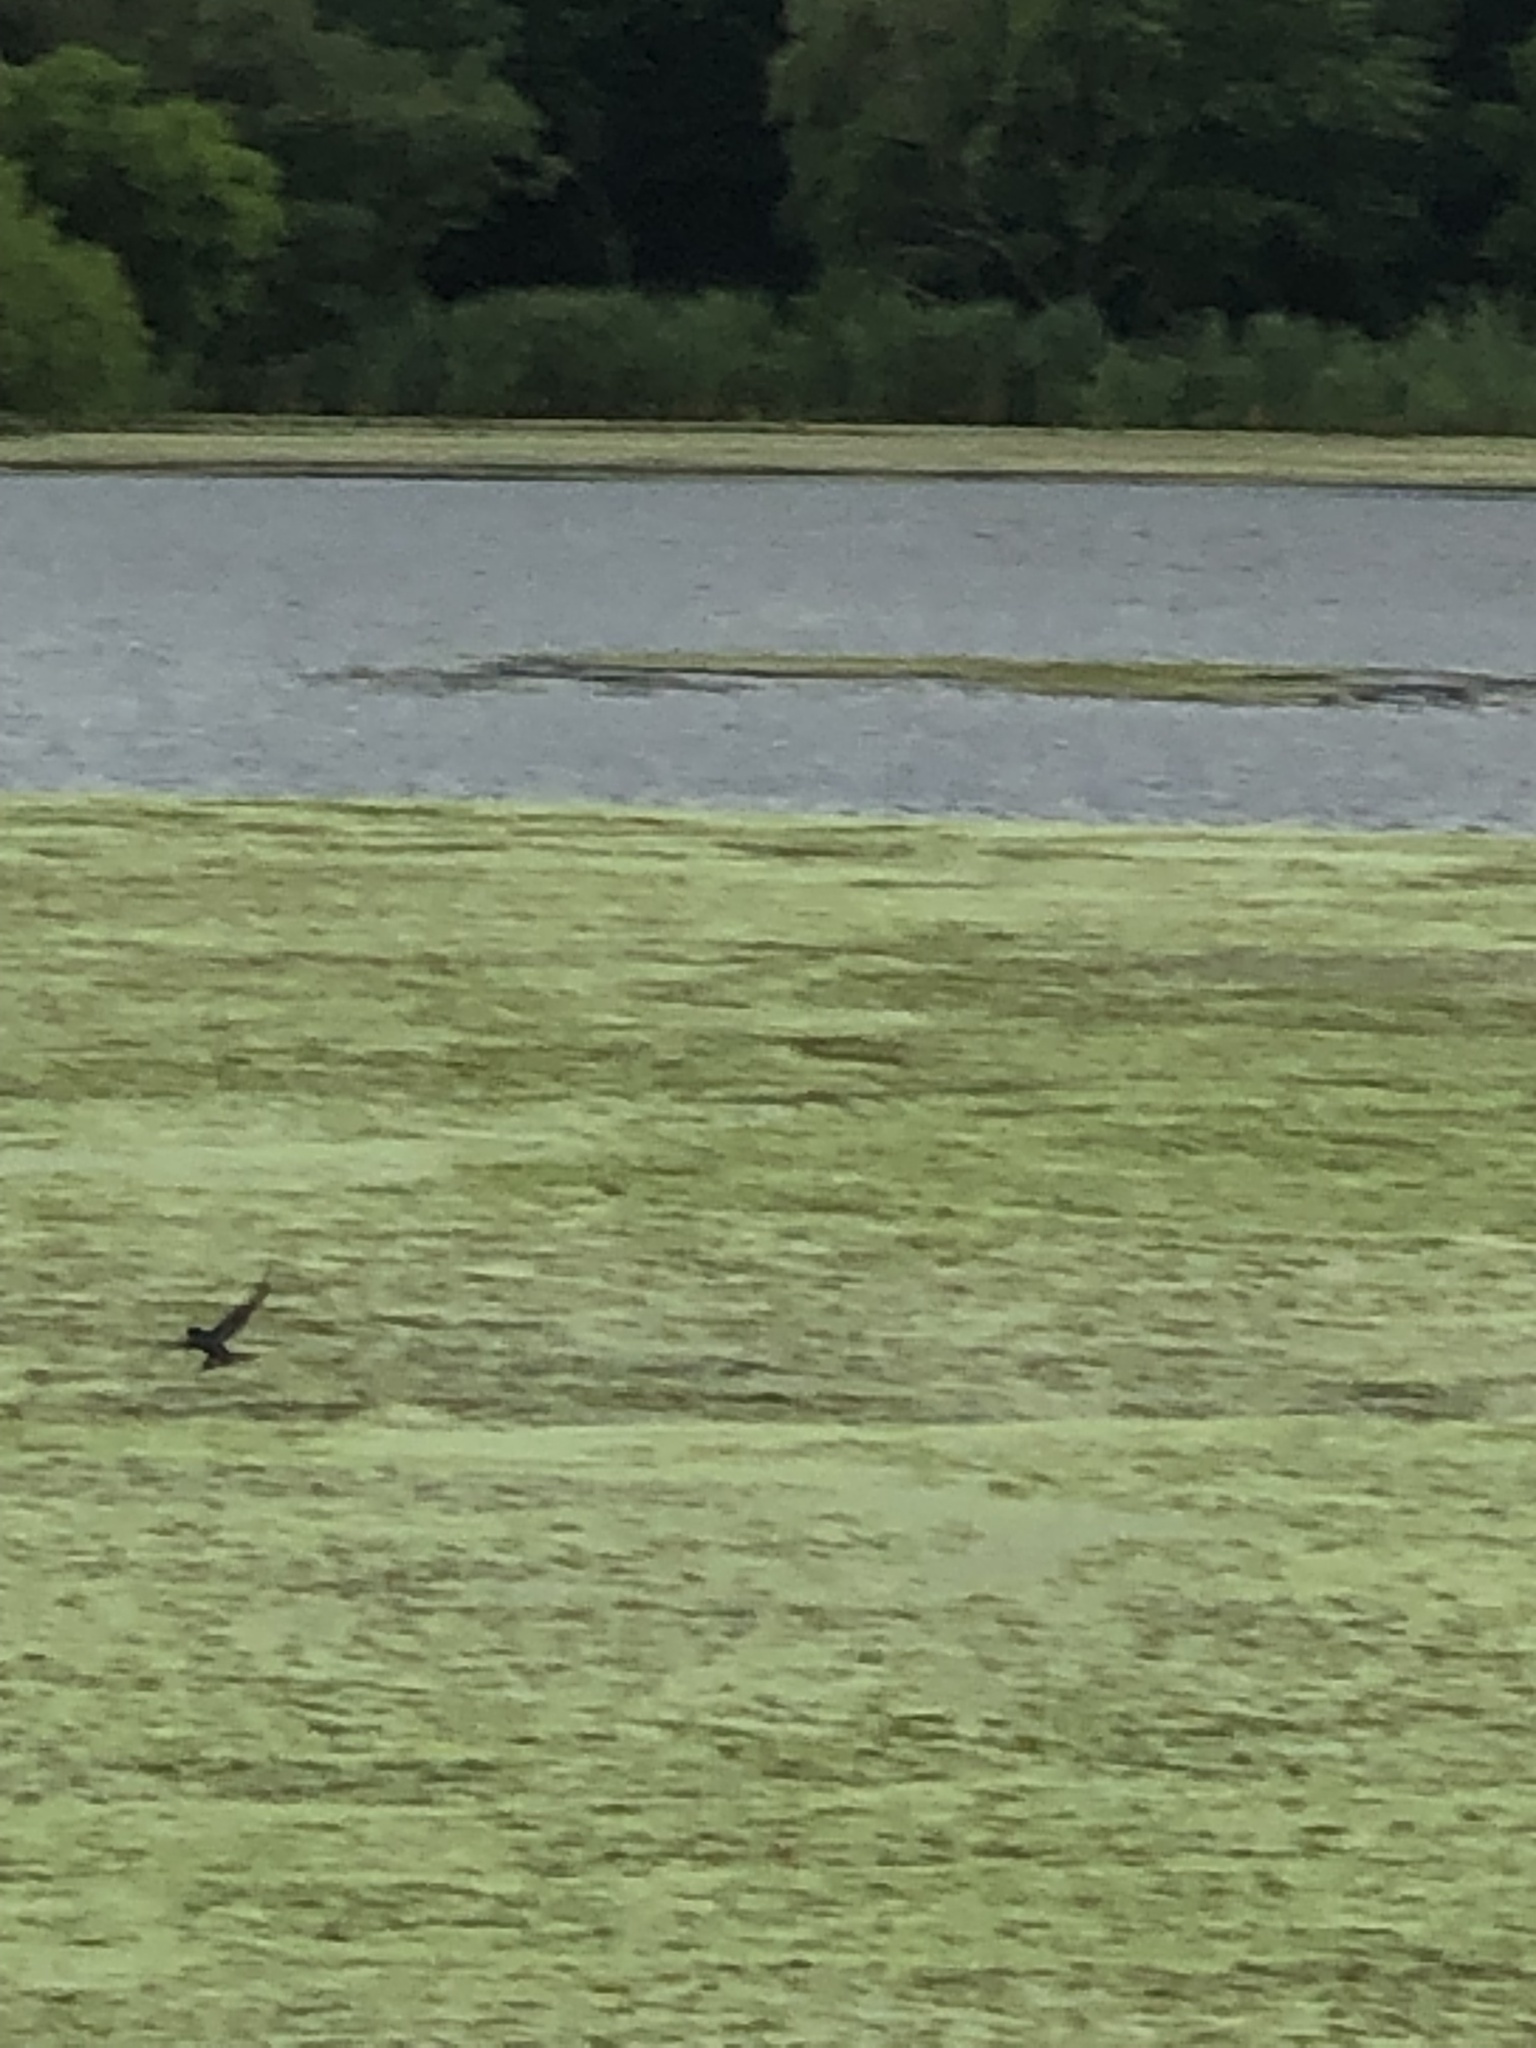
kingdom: Animalia
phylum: Chordata
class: Aves
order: Passeriformes
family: Hirundinidae
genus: Hirundo
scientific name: Hirundo rustica
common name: Barn swallow
